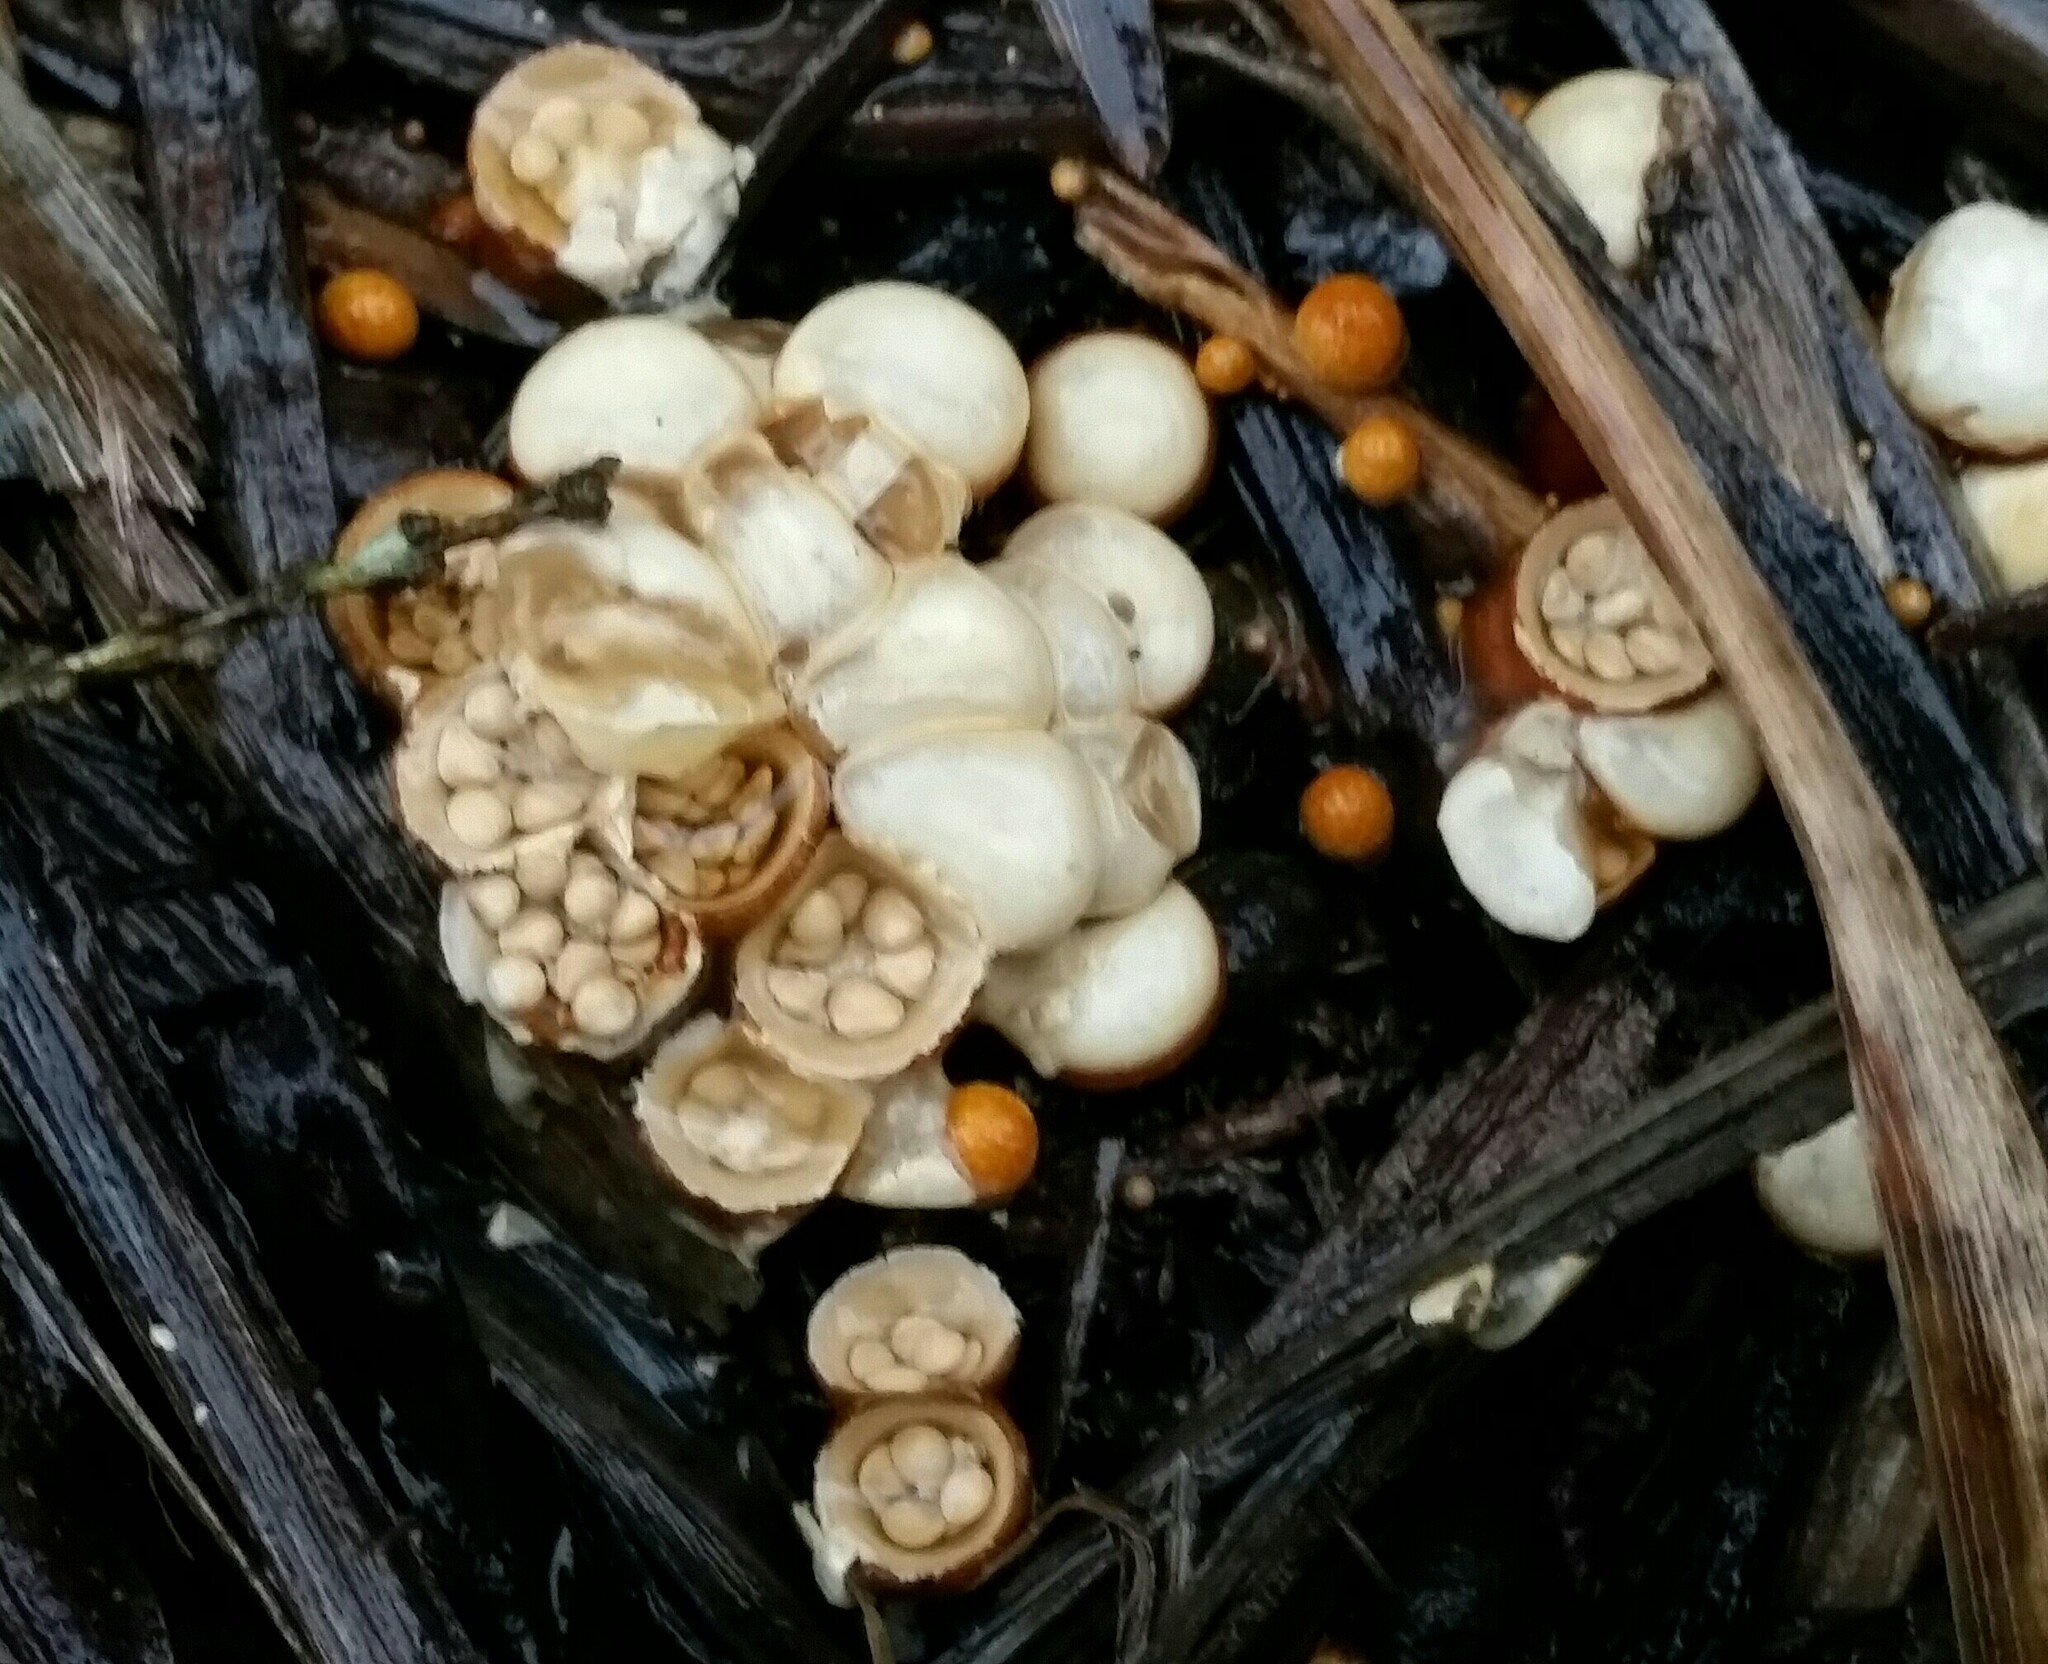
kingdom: Fungi
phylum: Basidiomycota
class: Agaricomycetes
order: Agaricales
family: Nidulariaceae
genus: Crucibulum
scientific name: Crucibulum laeve
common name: Common bird's nest
